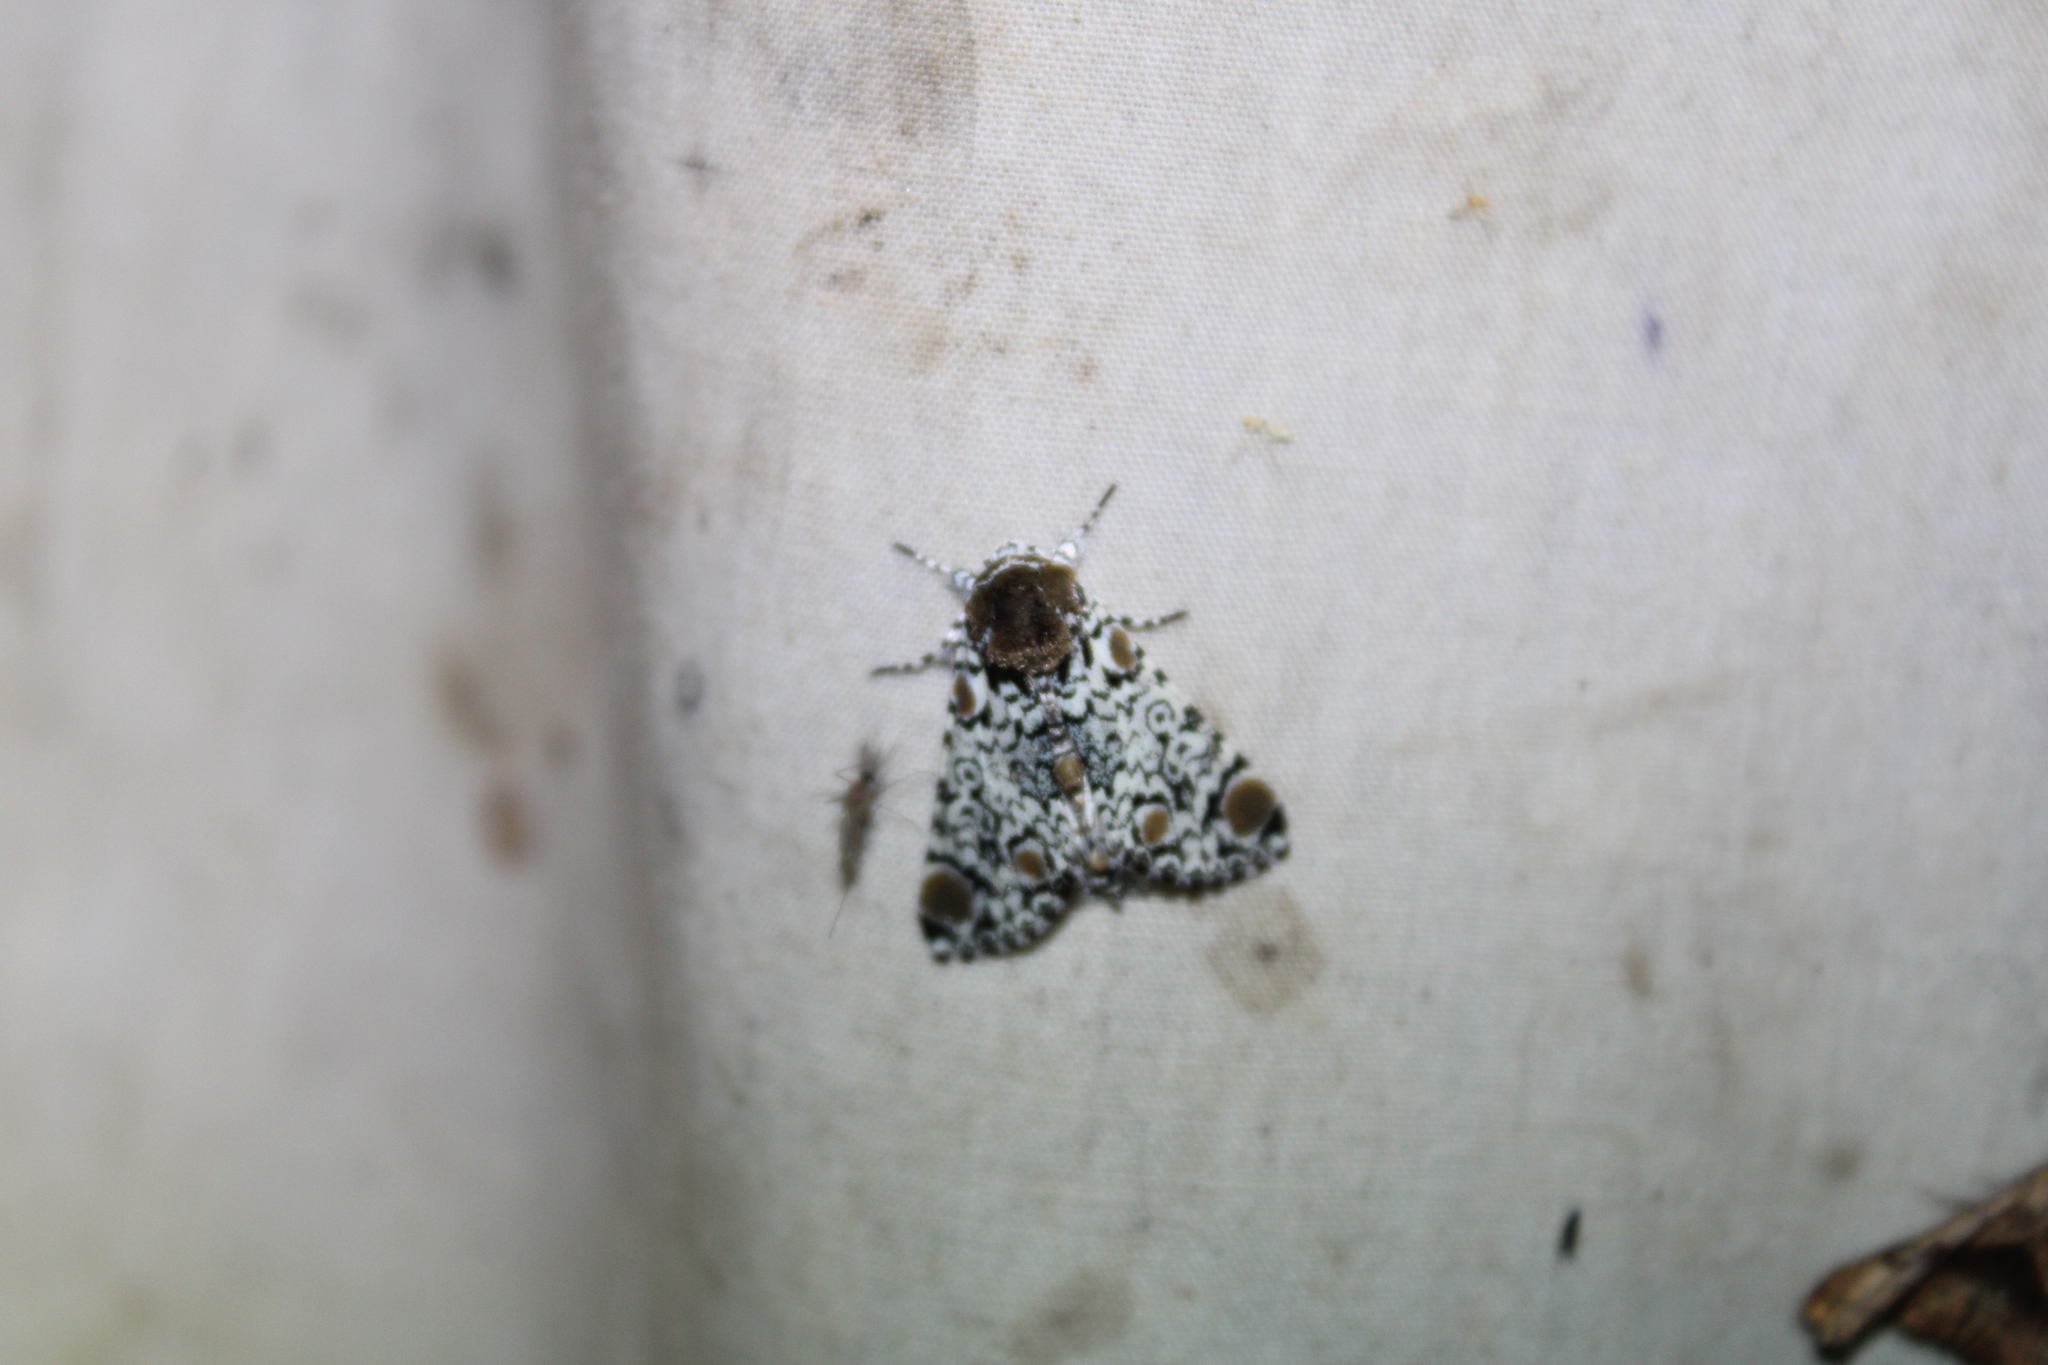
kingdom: Animalia
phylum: Arthropoda
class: Insecta
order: Lepidoptera
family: Noctuidae
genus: Harrisimemna
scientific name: Harrisimemna trisignata
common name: Harris threespot
